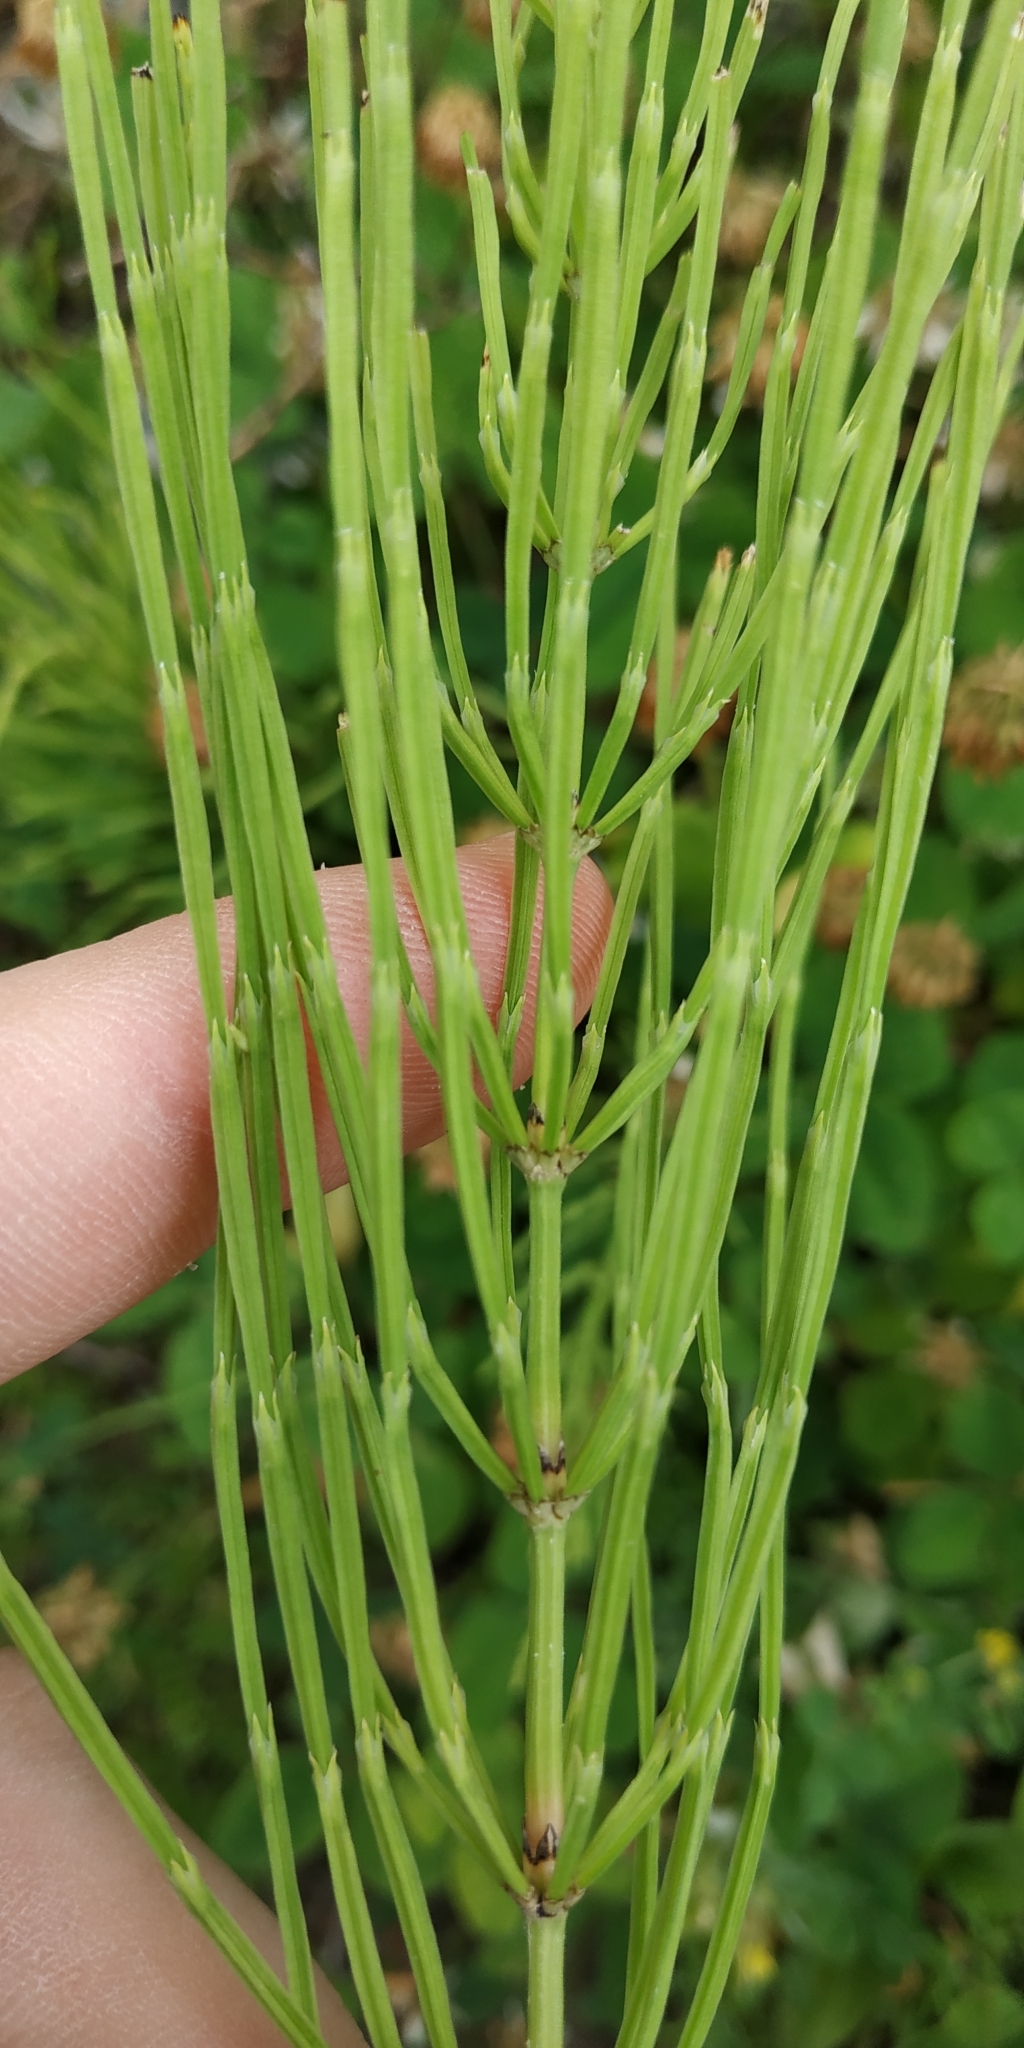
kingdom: Plantae
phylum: Tracheophyta
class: Polypodiopsida
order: Equisetales
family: Equisetaceae
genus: Equisetum
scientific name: Equisetum arvense
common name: Field horsetail
